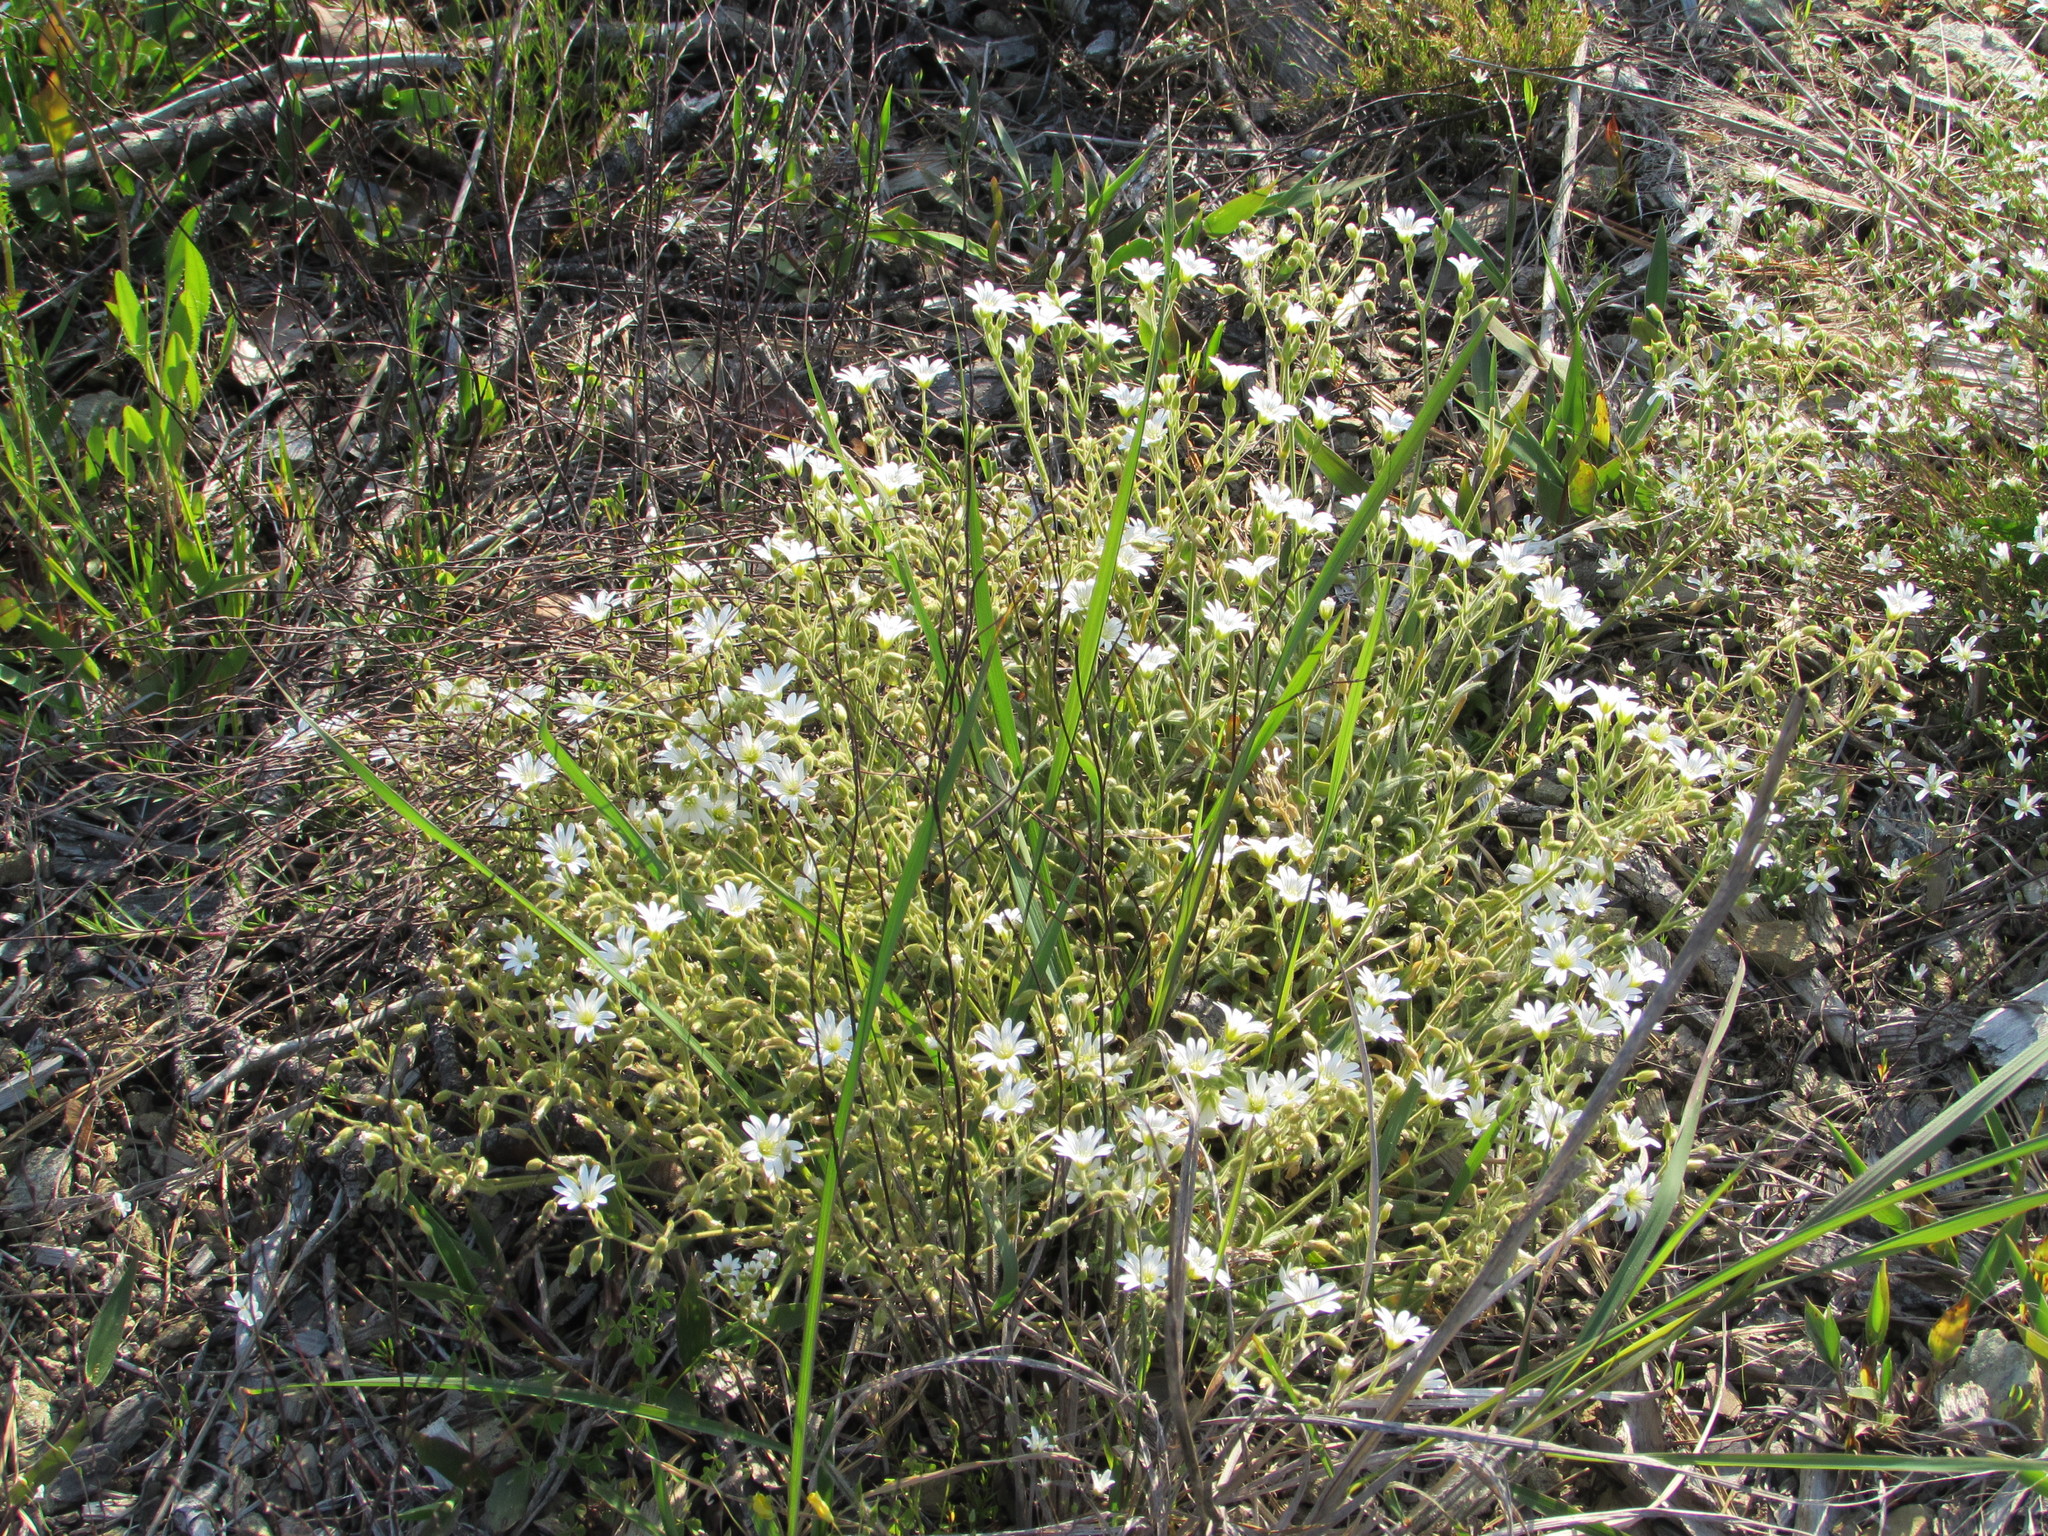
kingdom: Plantae
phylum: Tracheophyta
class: Magnoliopsida
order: Caryophyllales
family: Caryophyllaceae
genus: Cerastium
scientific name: Cerastium velutinum
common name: Barren chickweed
